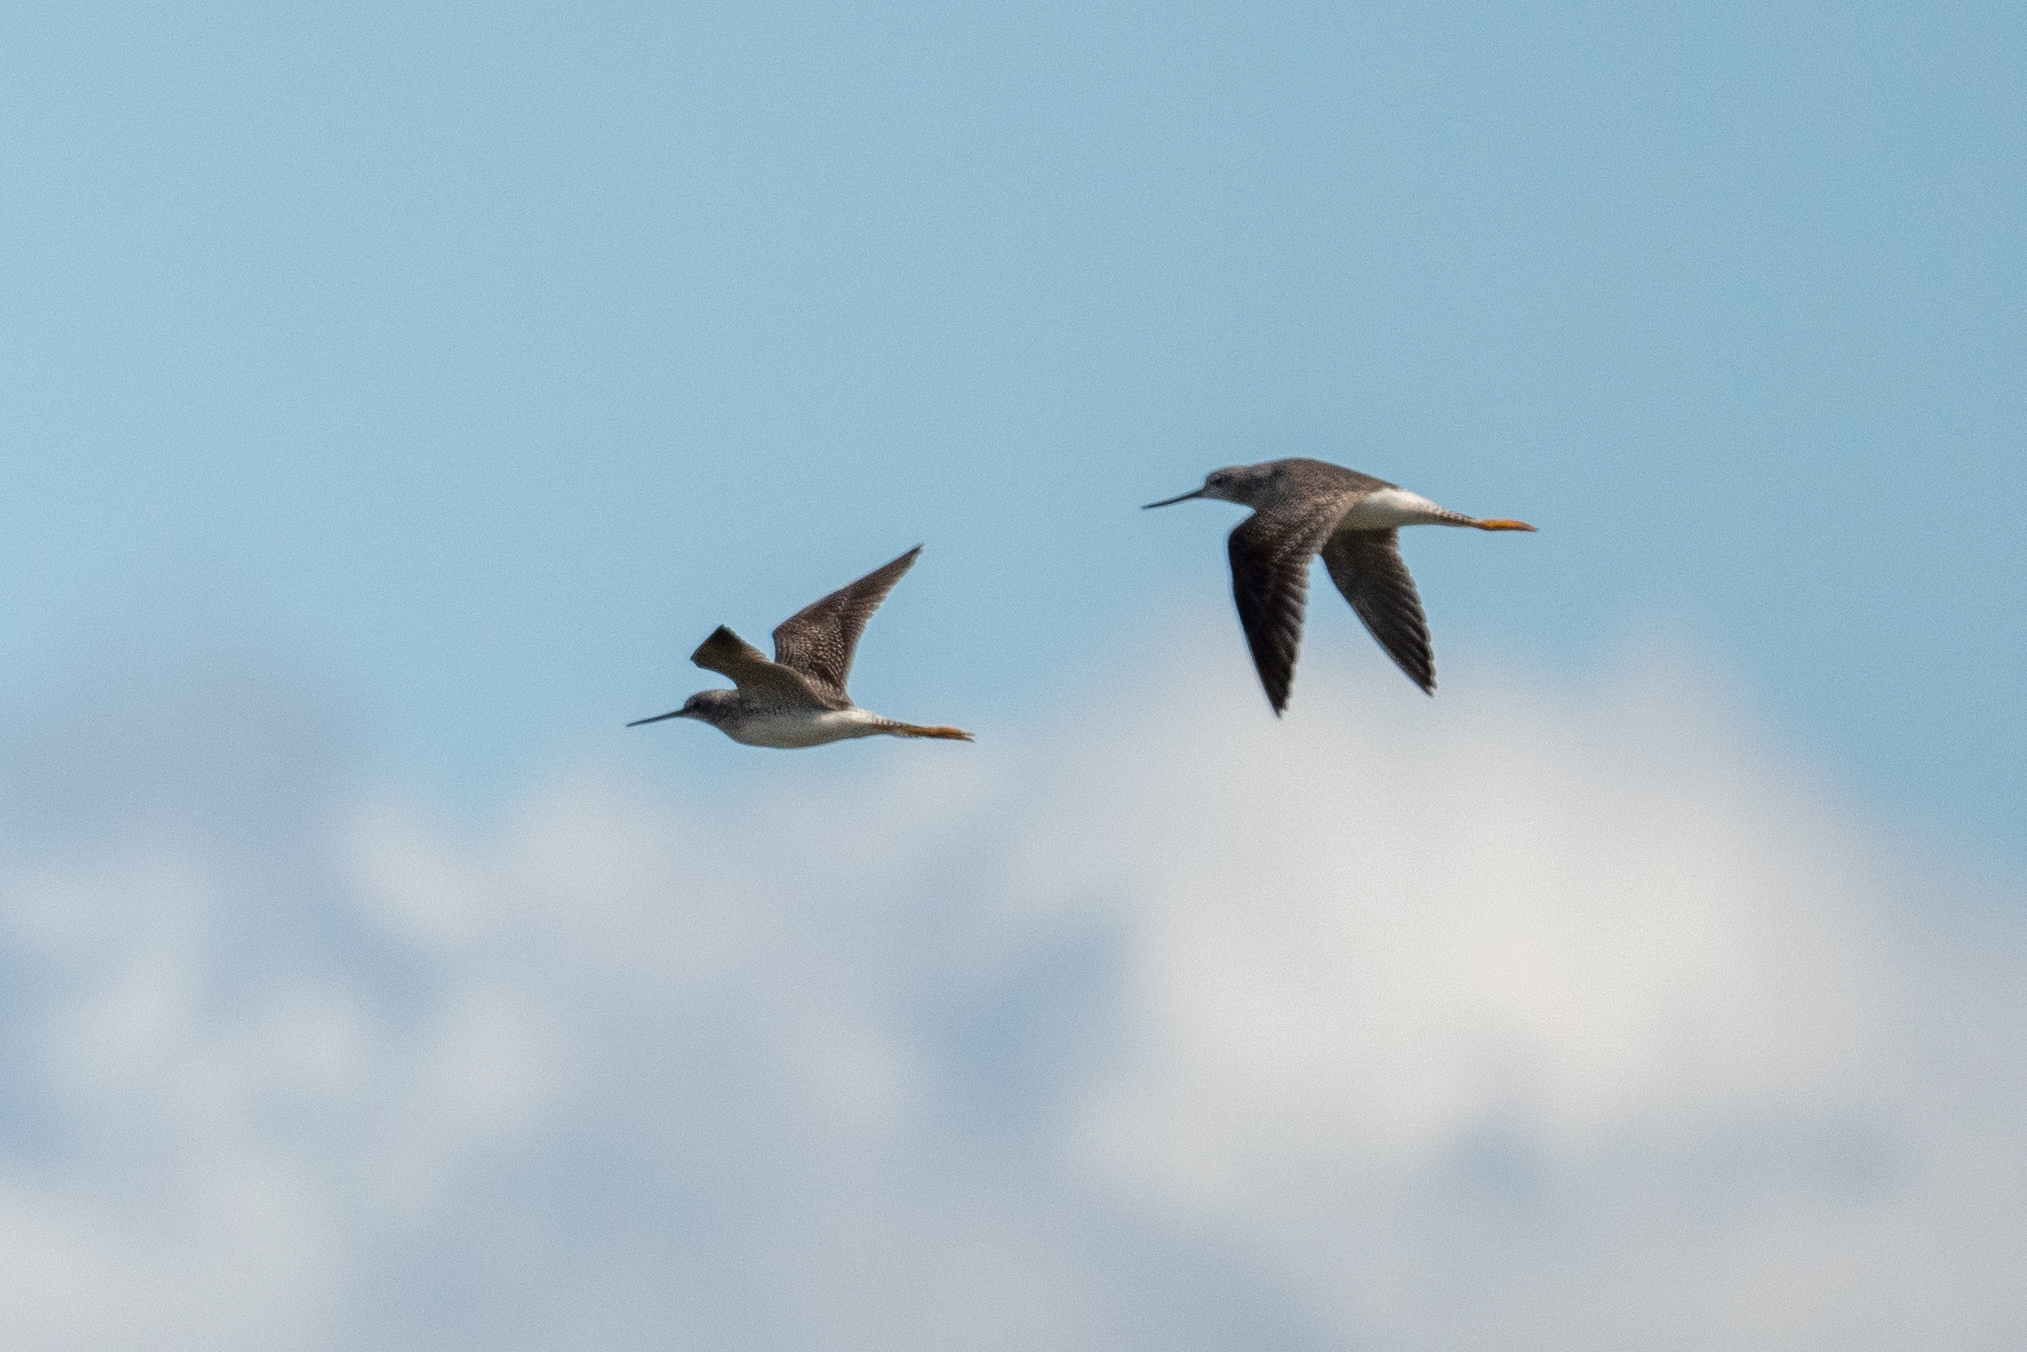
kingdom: Animalia
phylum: Chordata
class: Aves
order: Charadriiformes
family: Scolopacidae
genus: Tringa
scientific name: Tringa melanoleuca
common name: Greater yellowlegs
